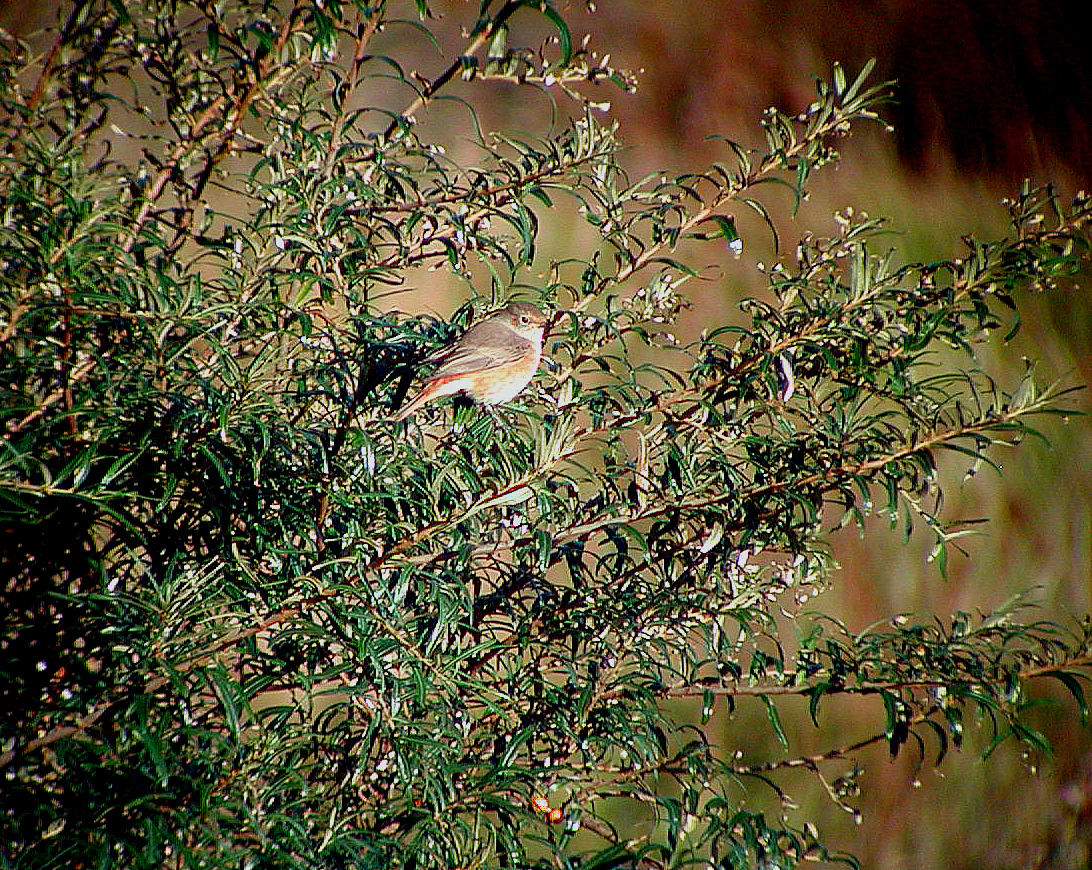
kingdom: Animalia
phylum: Chordata
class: Aves
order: Passeriformes
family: Muscicapidae
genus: Phoenicurus
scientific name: Phoenicurus phoenicurus
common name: Common redstart
